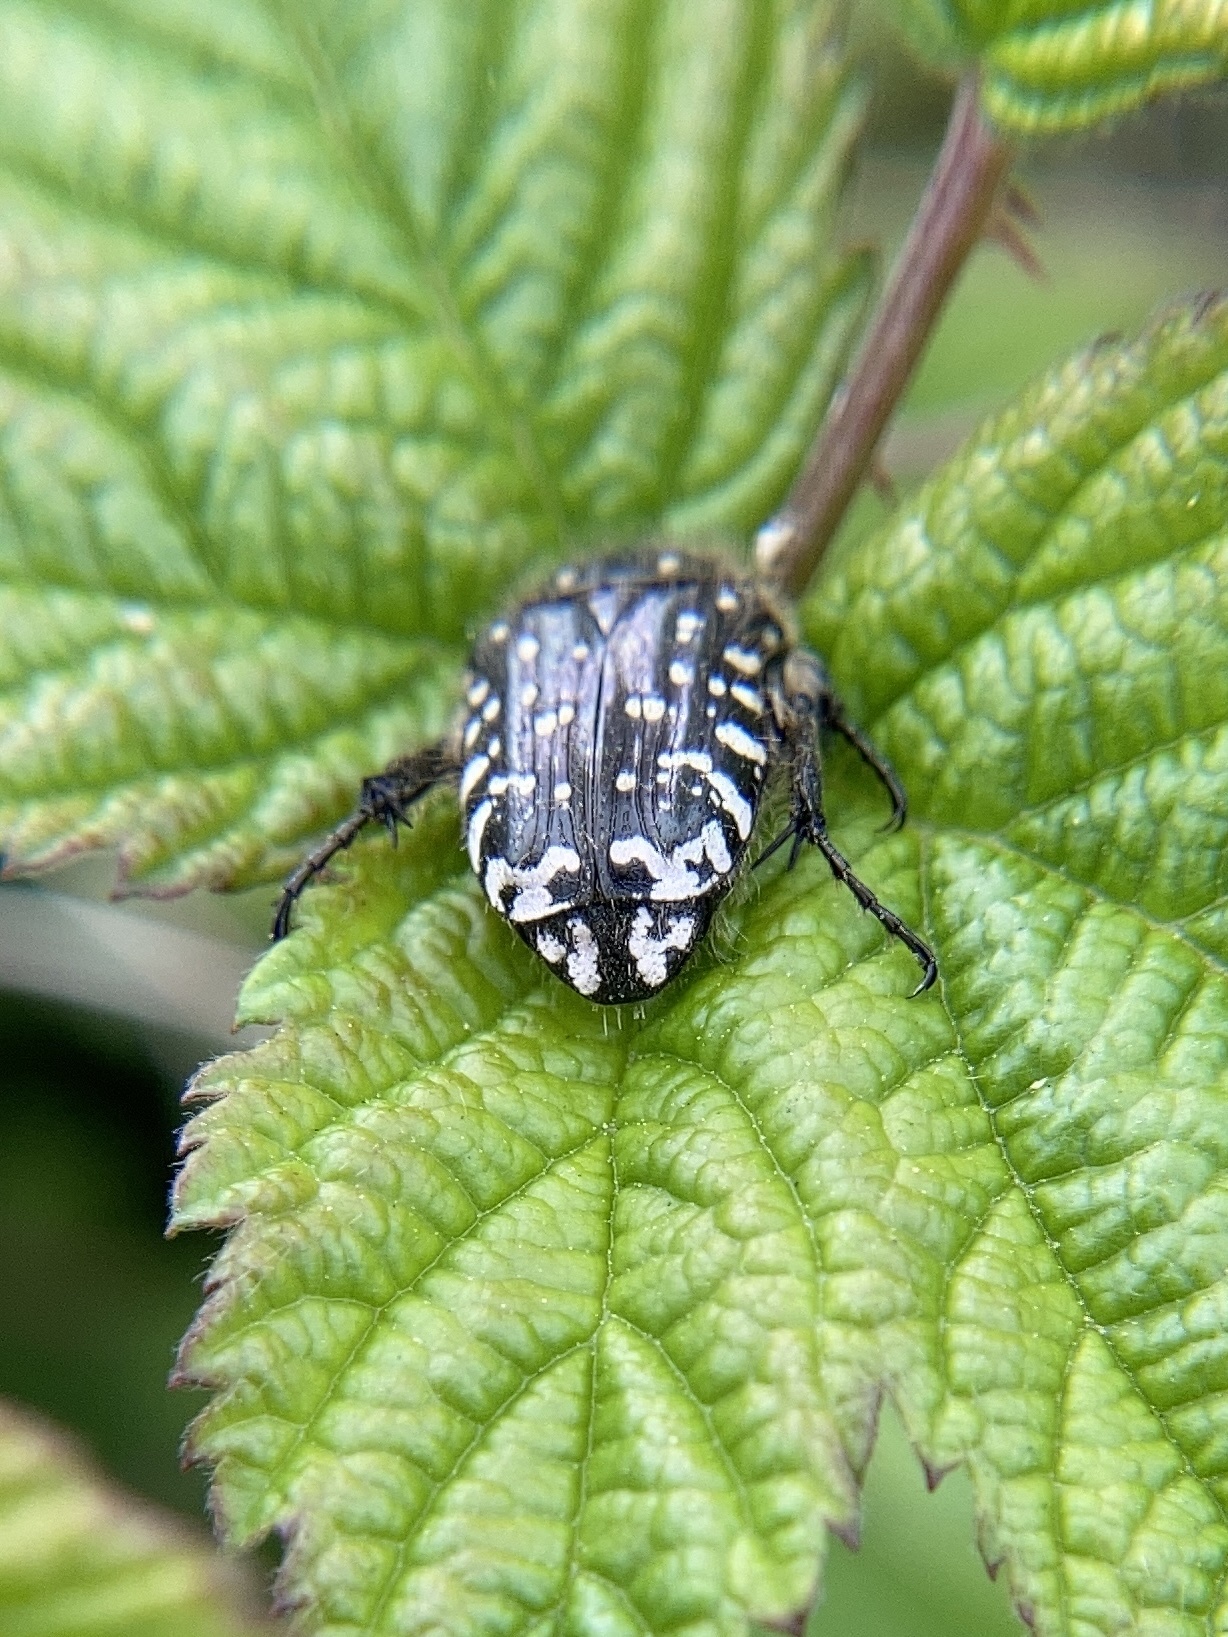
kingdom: Animalia
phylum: Arthropoda
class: Insecta
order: Coleoptera
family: Scarabaeidae
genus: Oxythyrea
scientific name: Oxythyrea funesta
